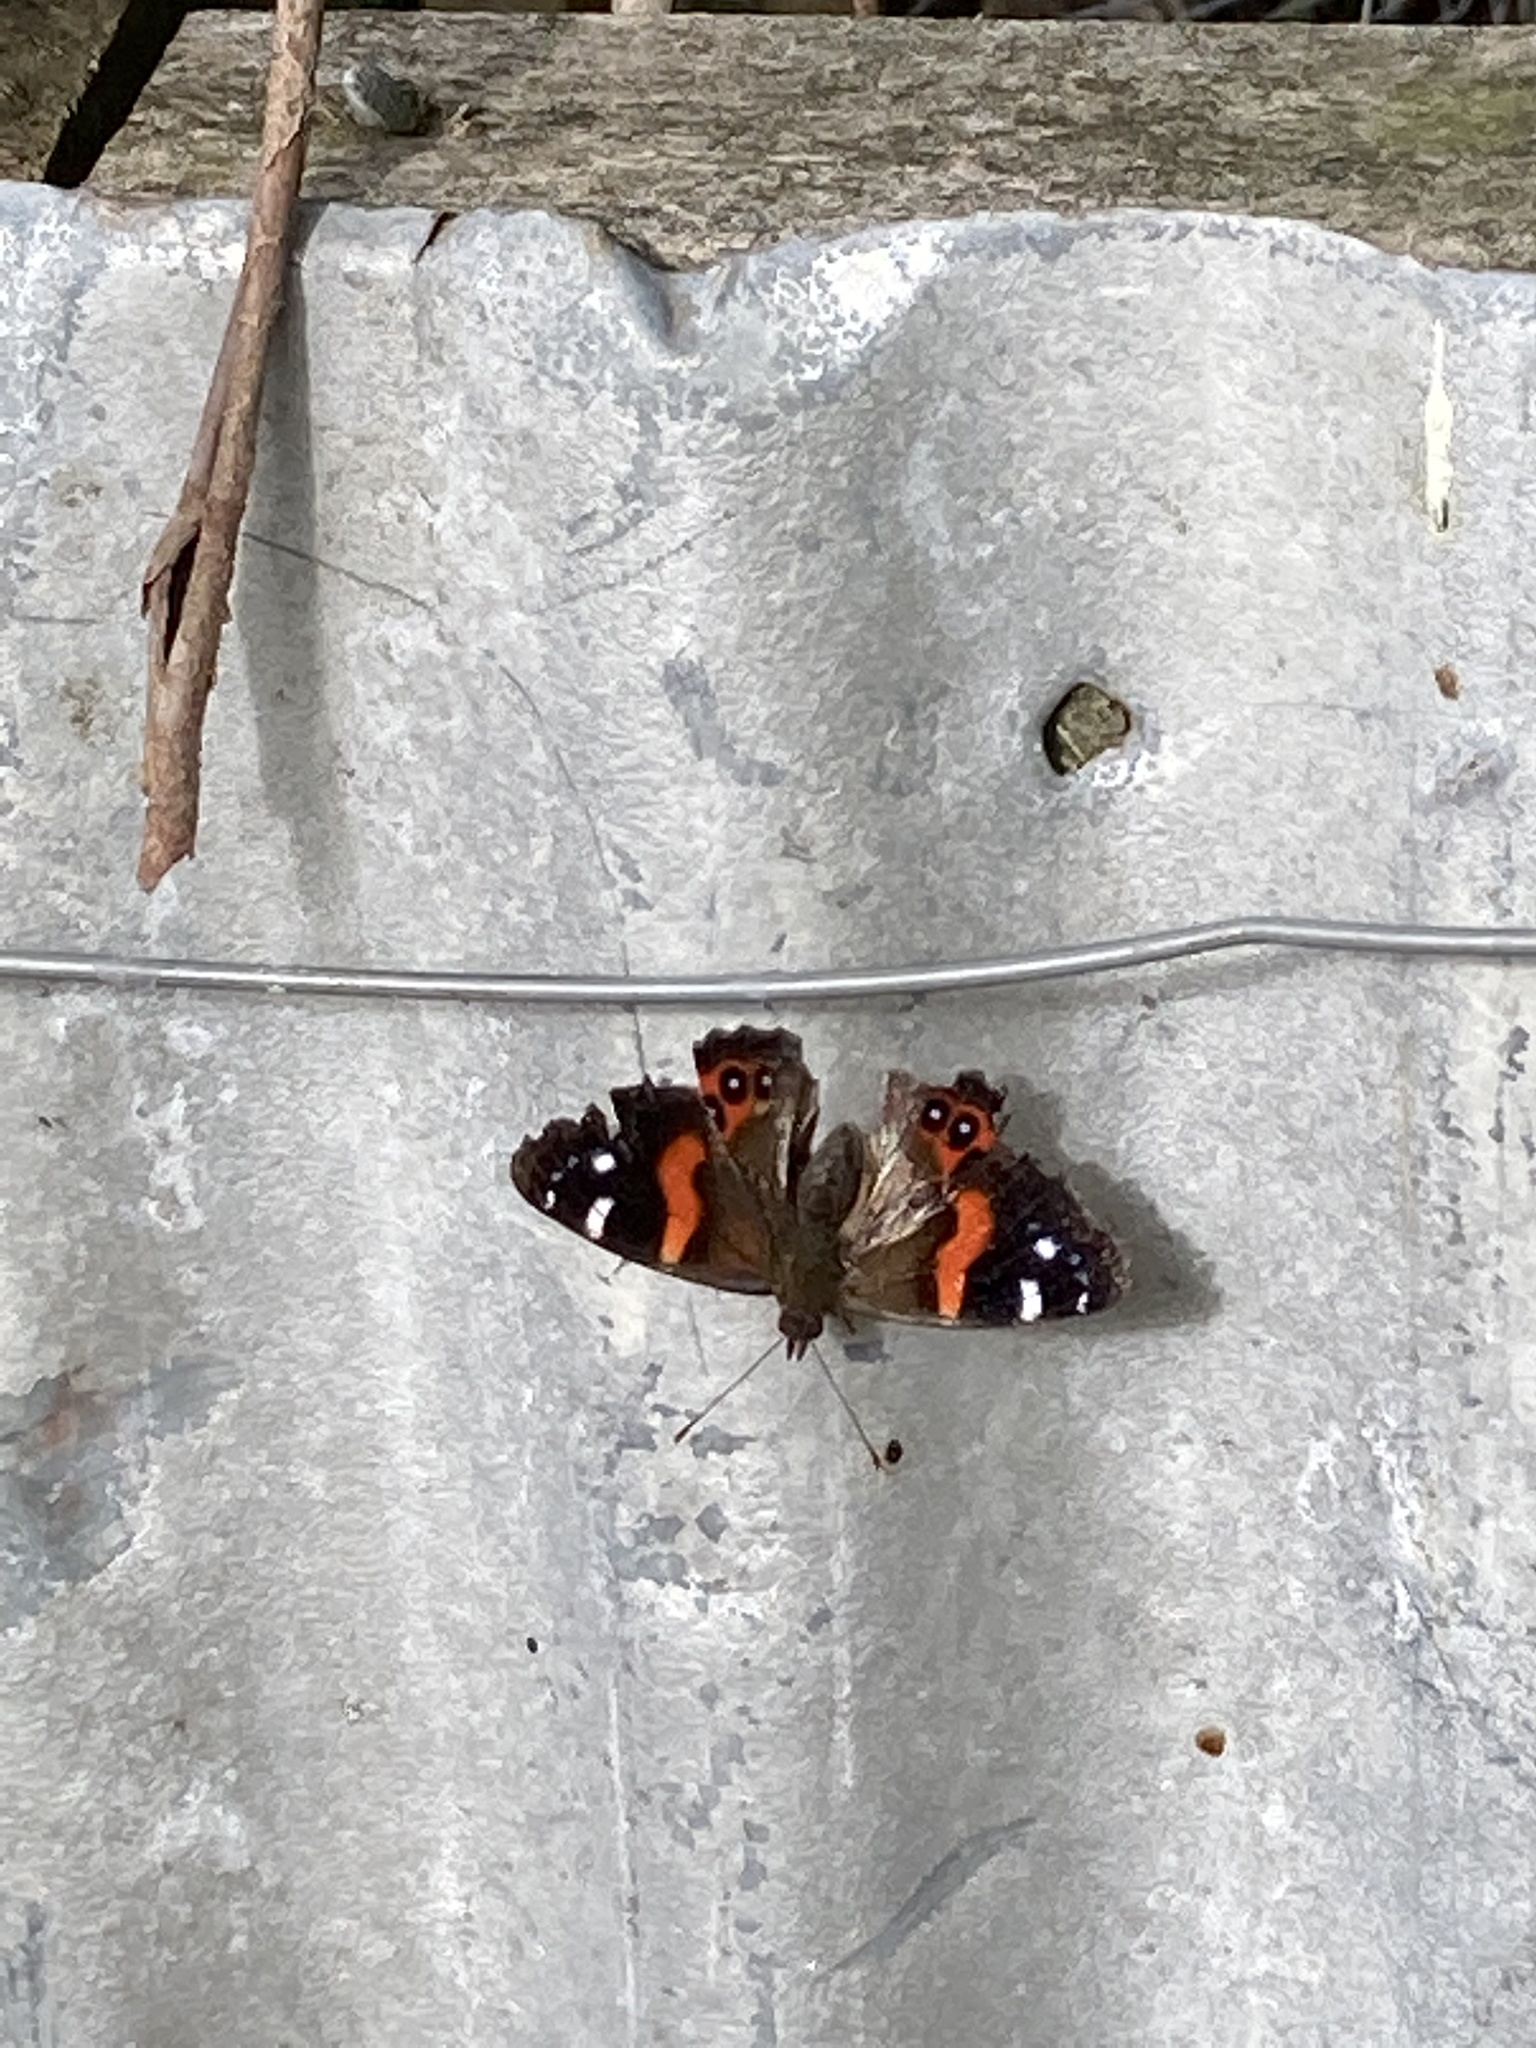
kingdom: Animalia
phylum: Arthropoda
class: Insecta
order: Lepidoptera
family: Nymphalidae
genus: Vanessa
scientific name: Vanessa gonerilla
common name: New zealand red admiral
